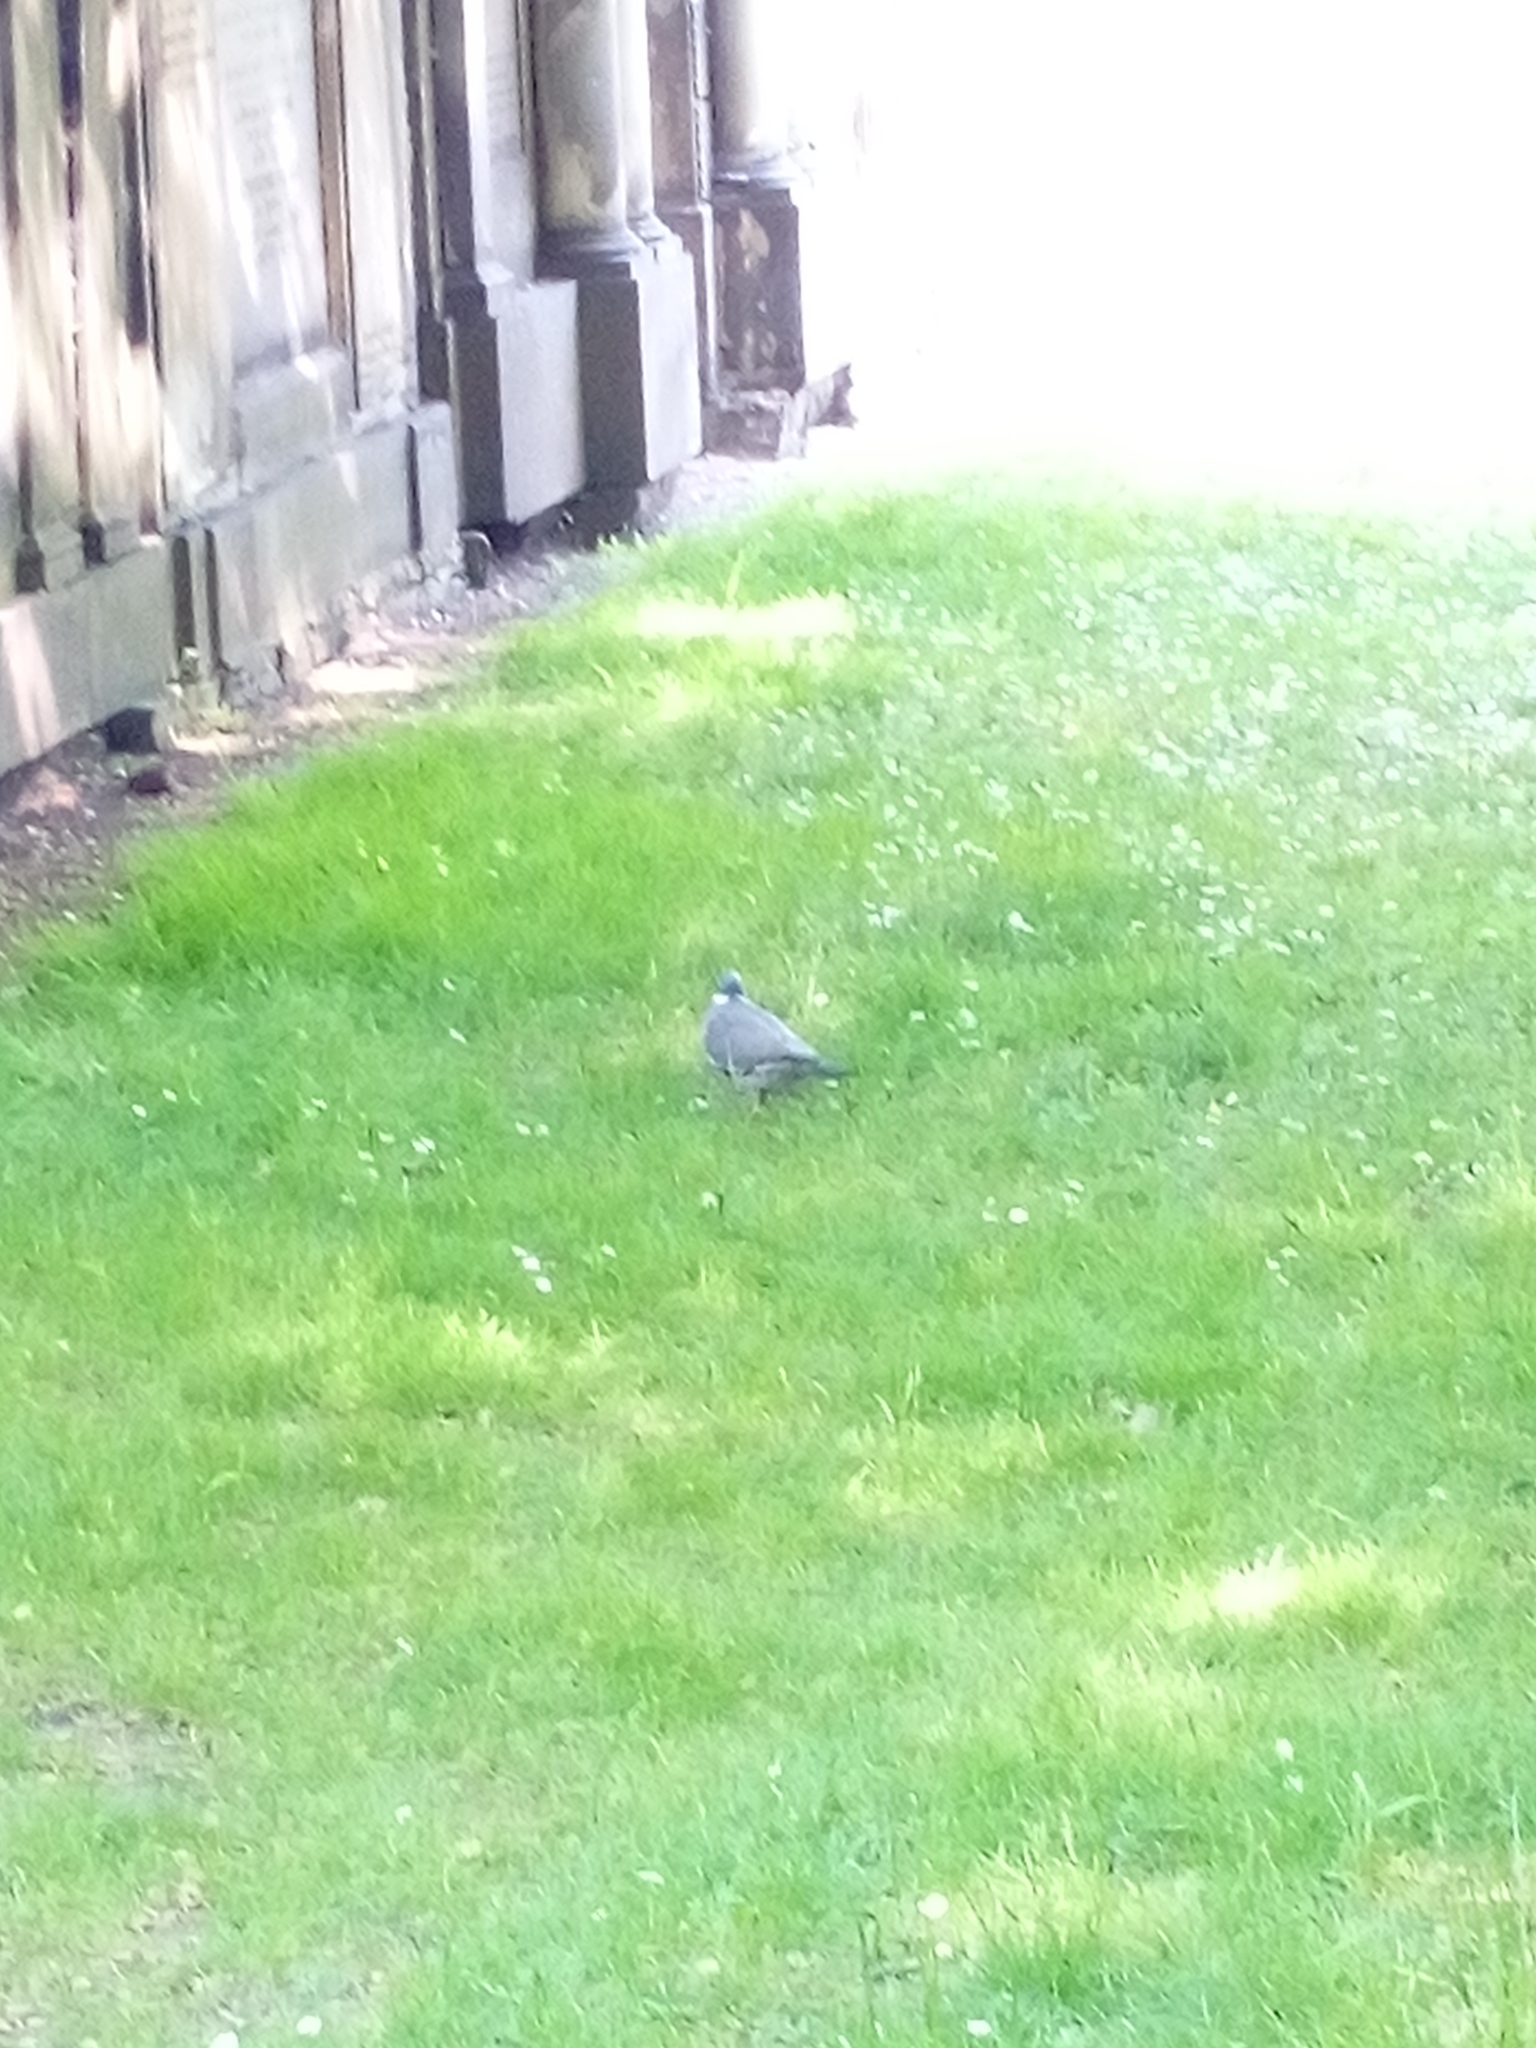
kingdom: Animalia
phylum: Chordata
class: Aves
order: Columbiformes
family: Columbidae
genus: Columba
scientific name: Columba palumbus
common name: Common wood pigeon
